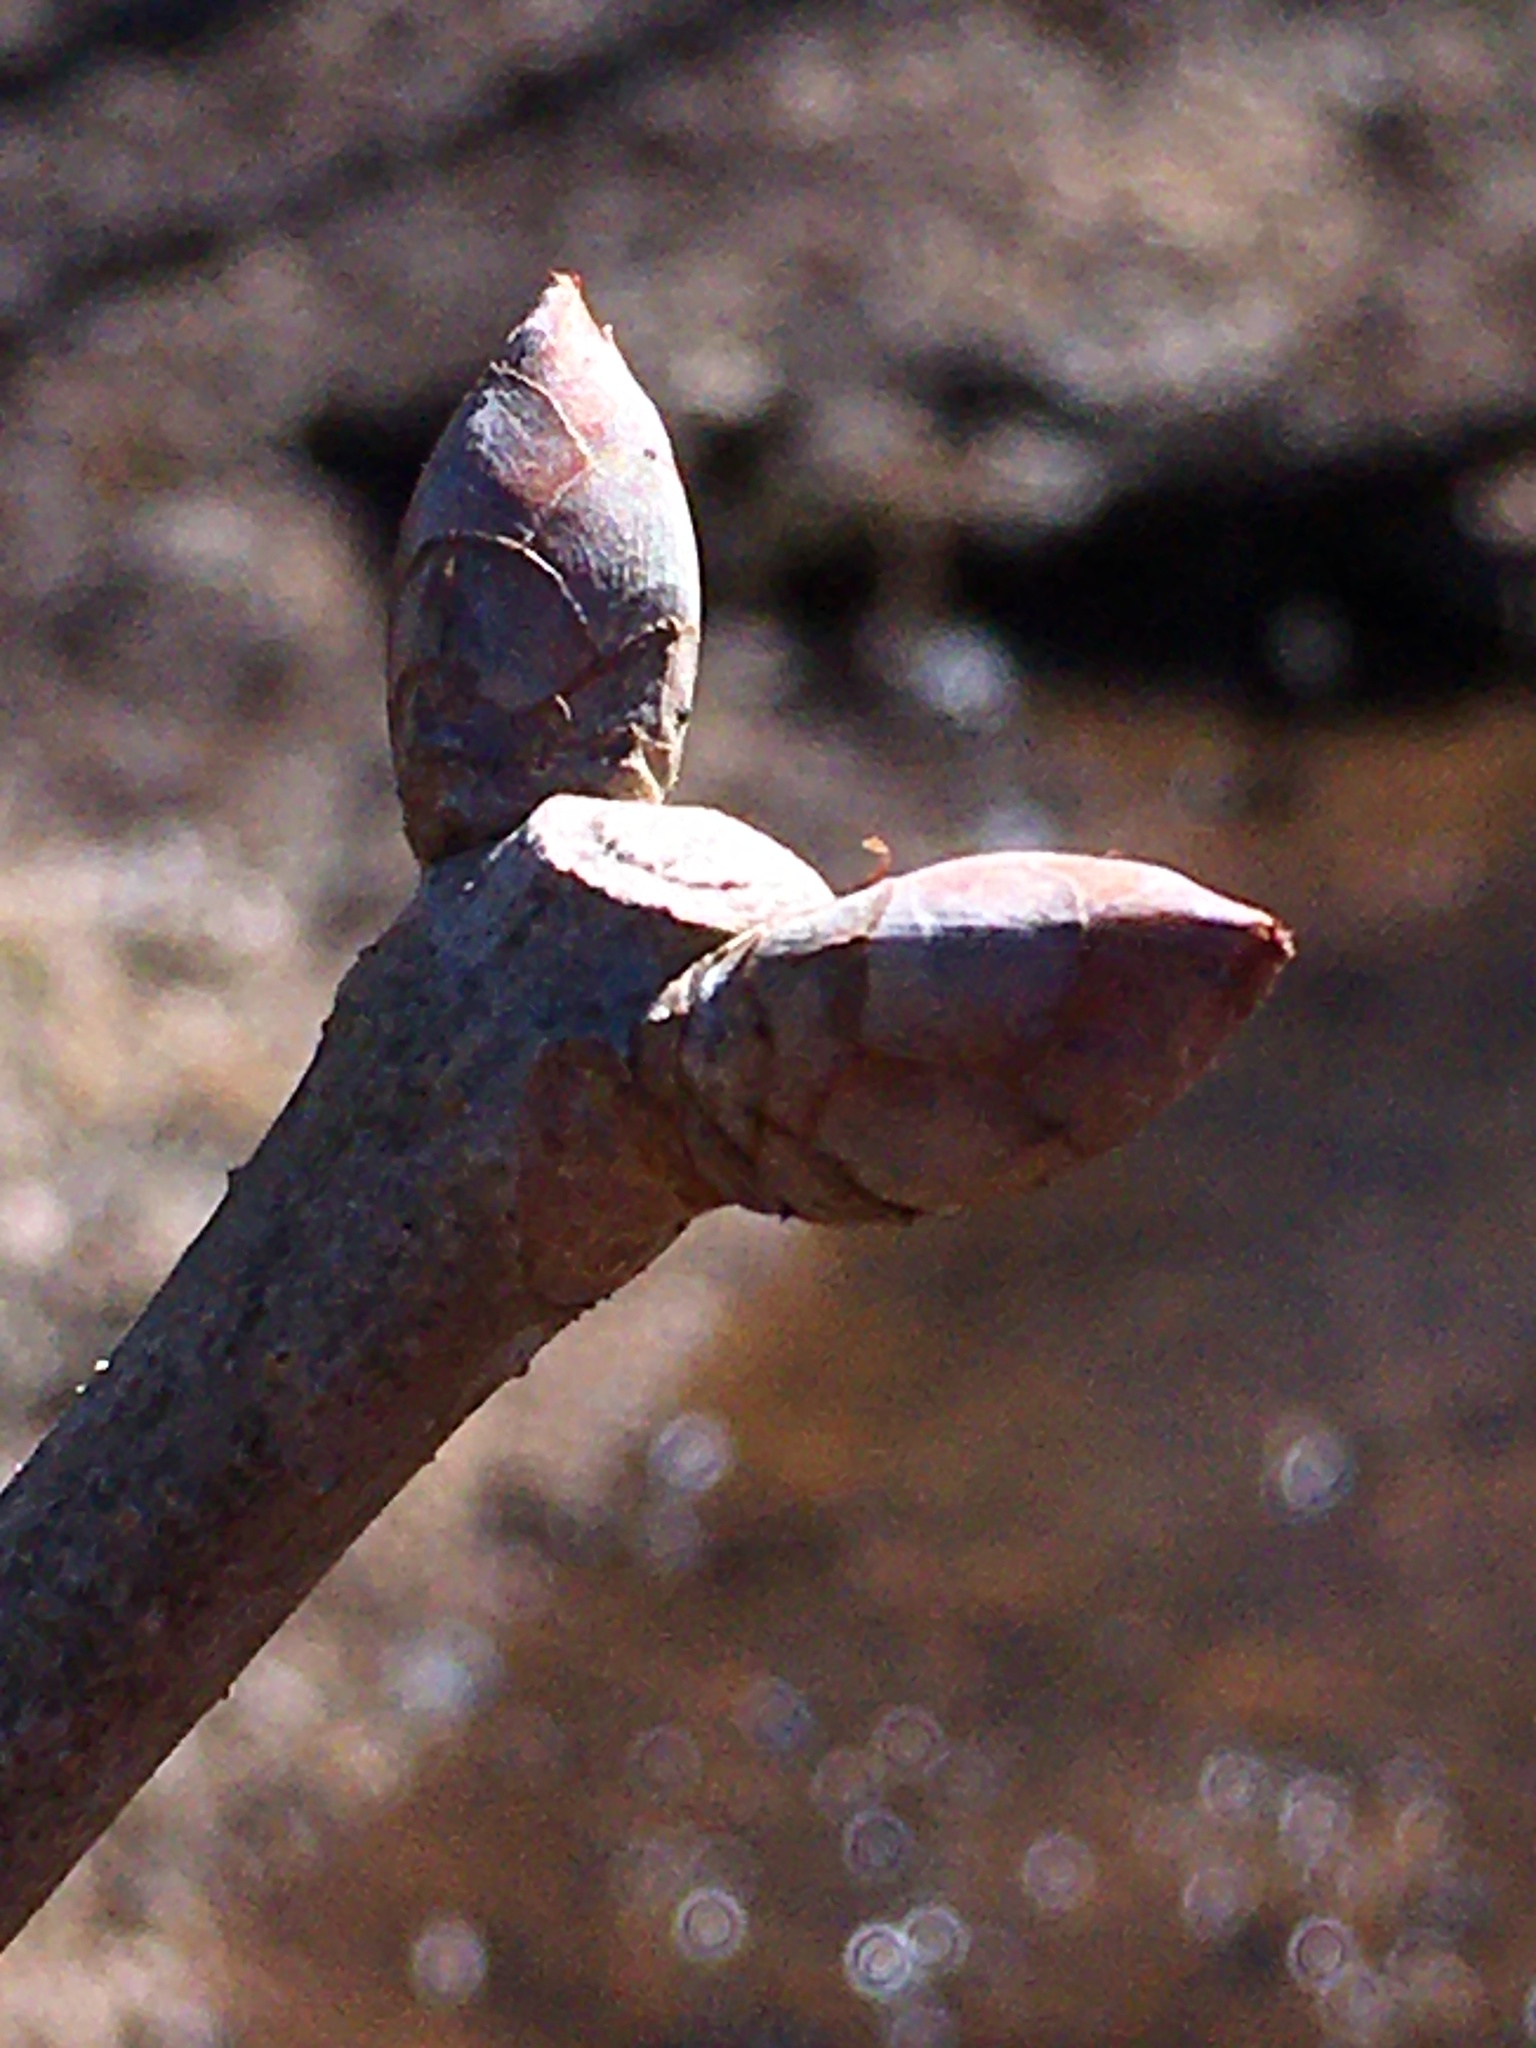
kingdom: Plantae
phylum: Tracheophyta
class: Magnoliopsida
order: Sapindales
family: Sapindaceae
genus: Aesculus
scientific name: Aesculus sylvatica
